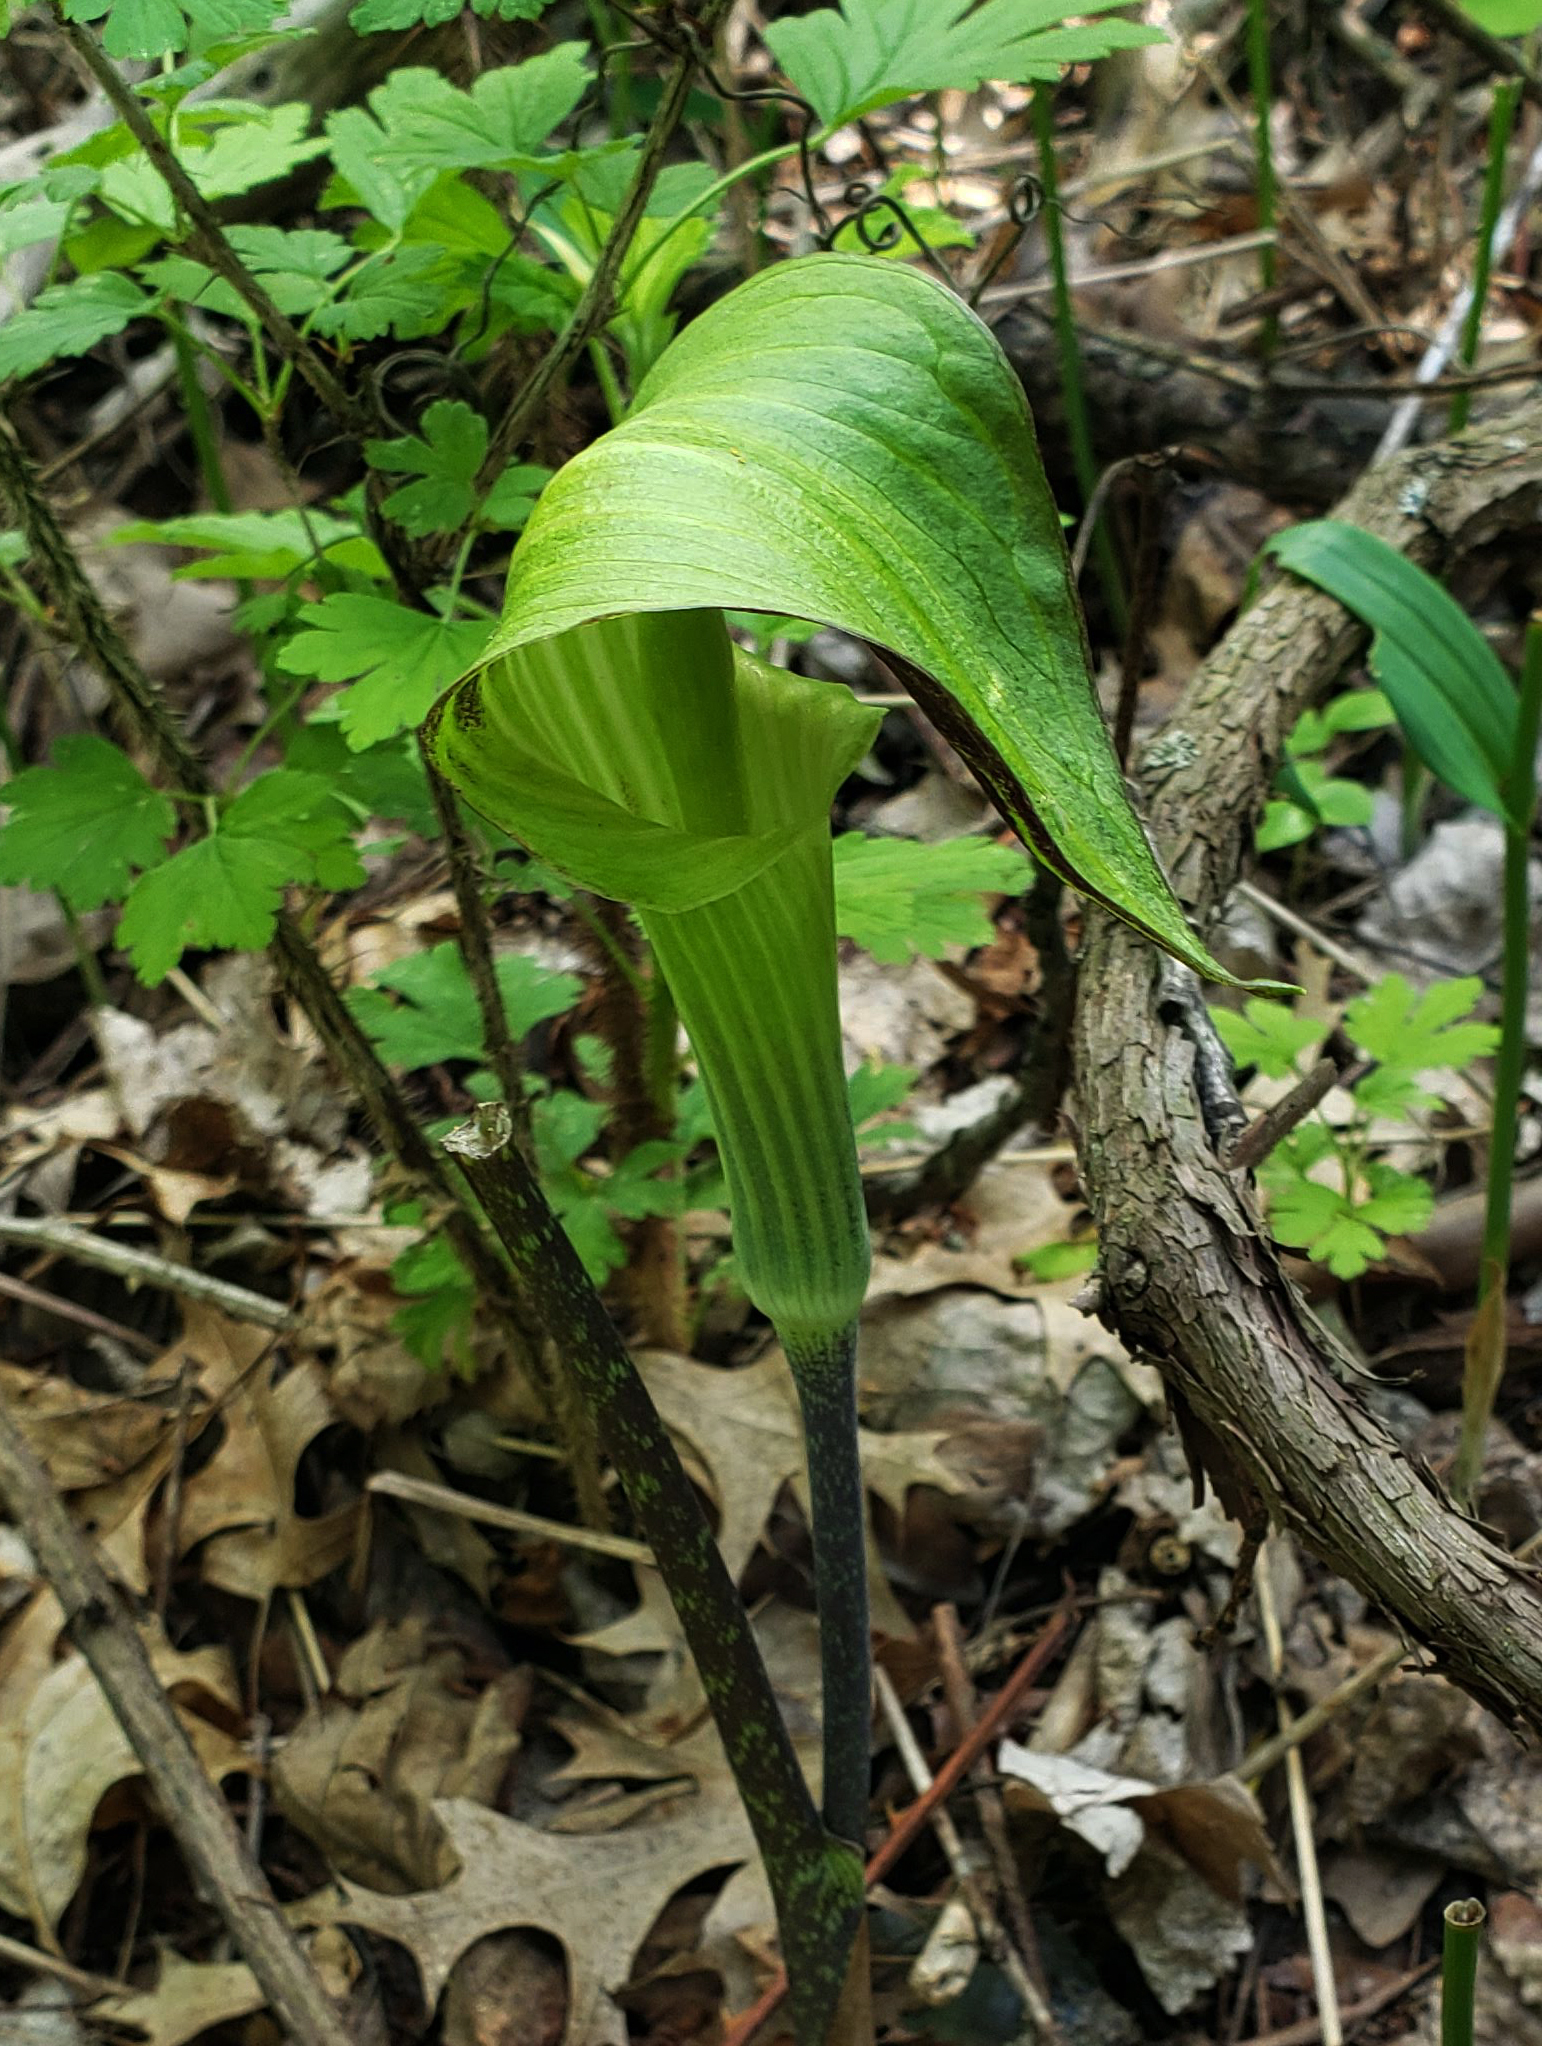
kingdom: Plantae
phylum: Tracheophyta
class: Liliopsida
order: Alismatales
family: Araceae
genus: Arisaema
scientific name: Arisaema triphyllum
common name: Jack-in-the-pulpit
